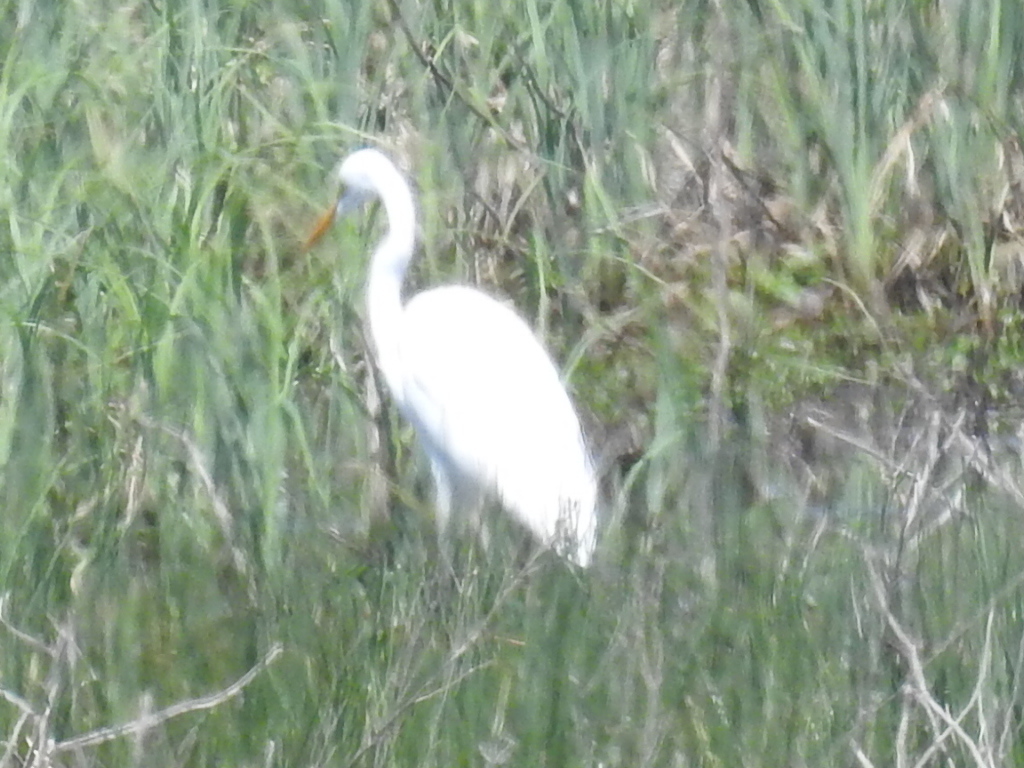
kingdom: Animalia
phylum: Chordata
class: Aves
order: Pelecaniformes
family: Ardeidae
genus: Ardea
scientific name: Ardea alba
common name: Great egret
